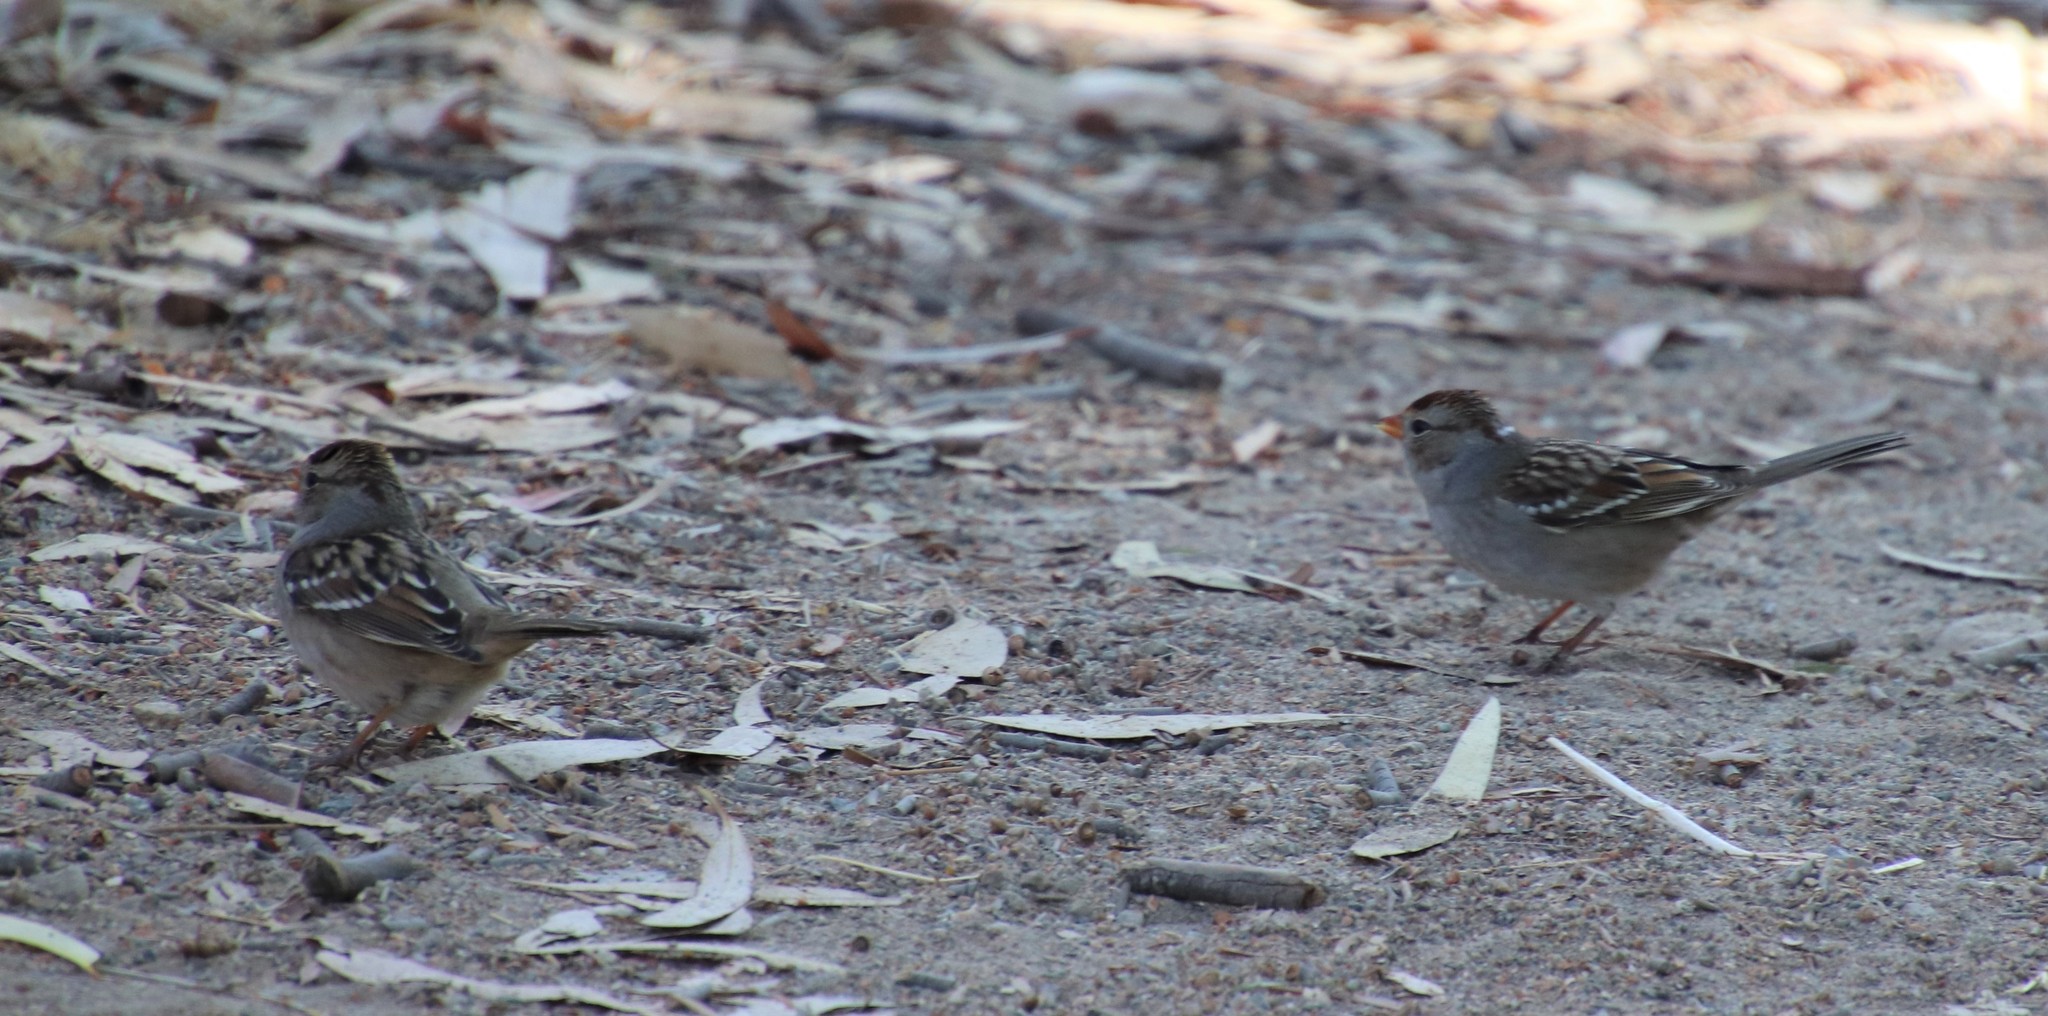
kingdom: Animalia
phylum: Chordata
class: Aves
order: Passeriformes
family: Passerellidae
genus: Zonotrichia
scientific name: Zonotrichia leucophrys
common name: White-crowned sparrow
